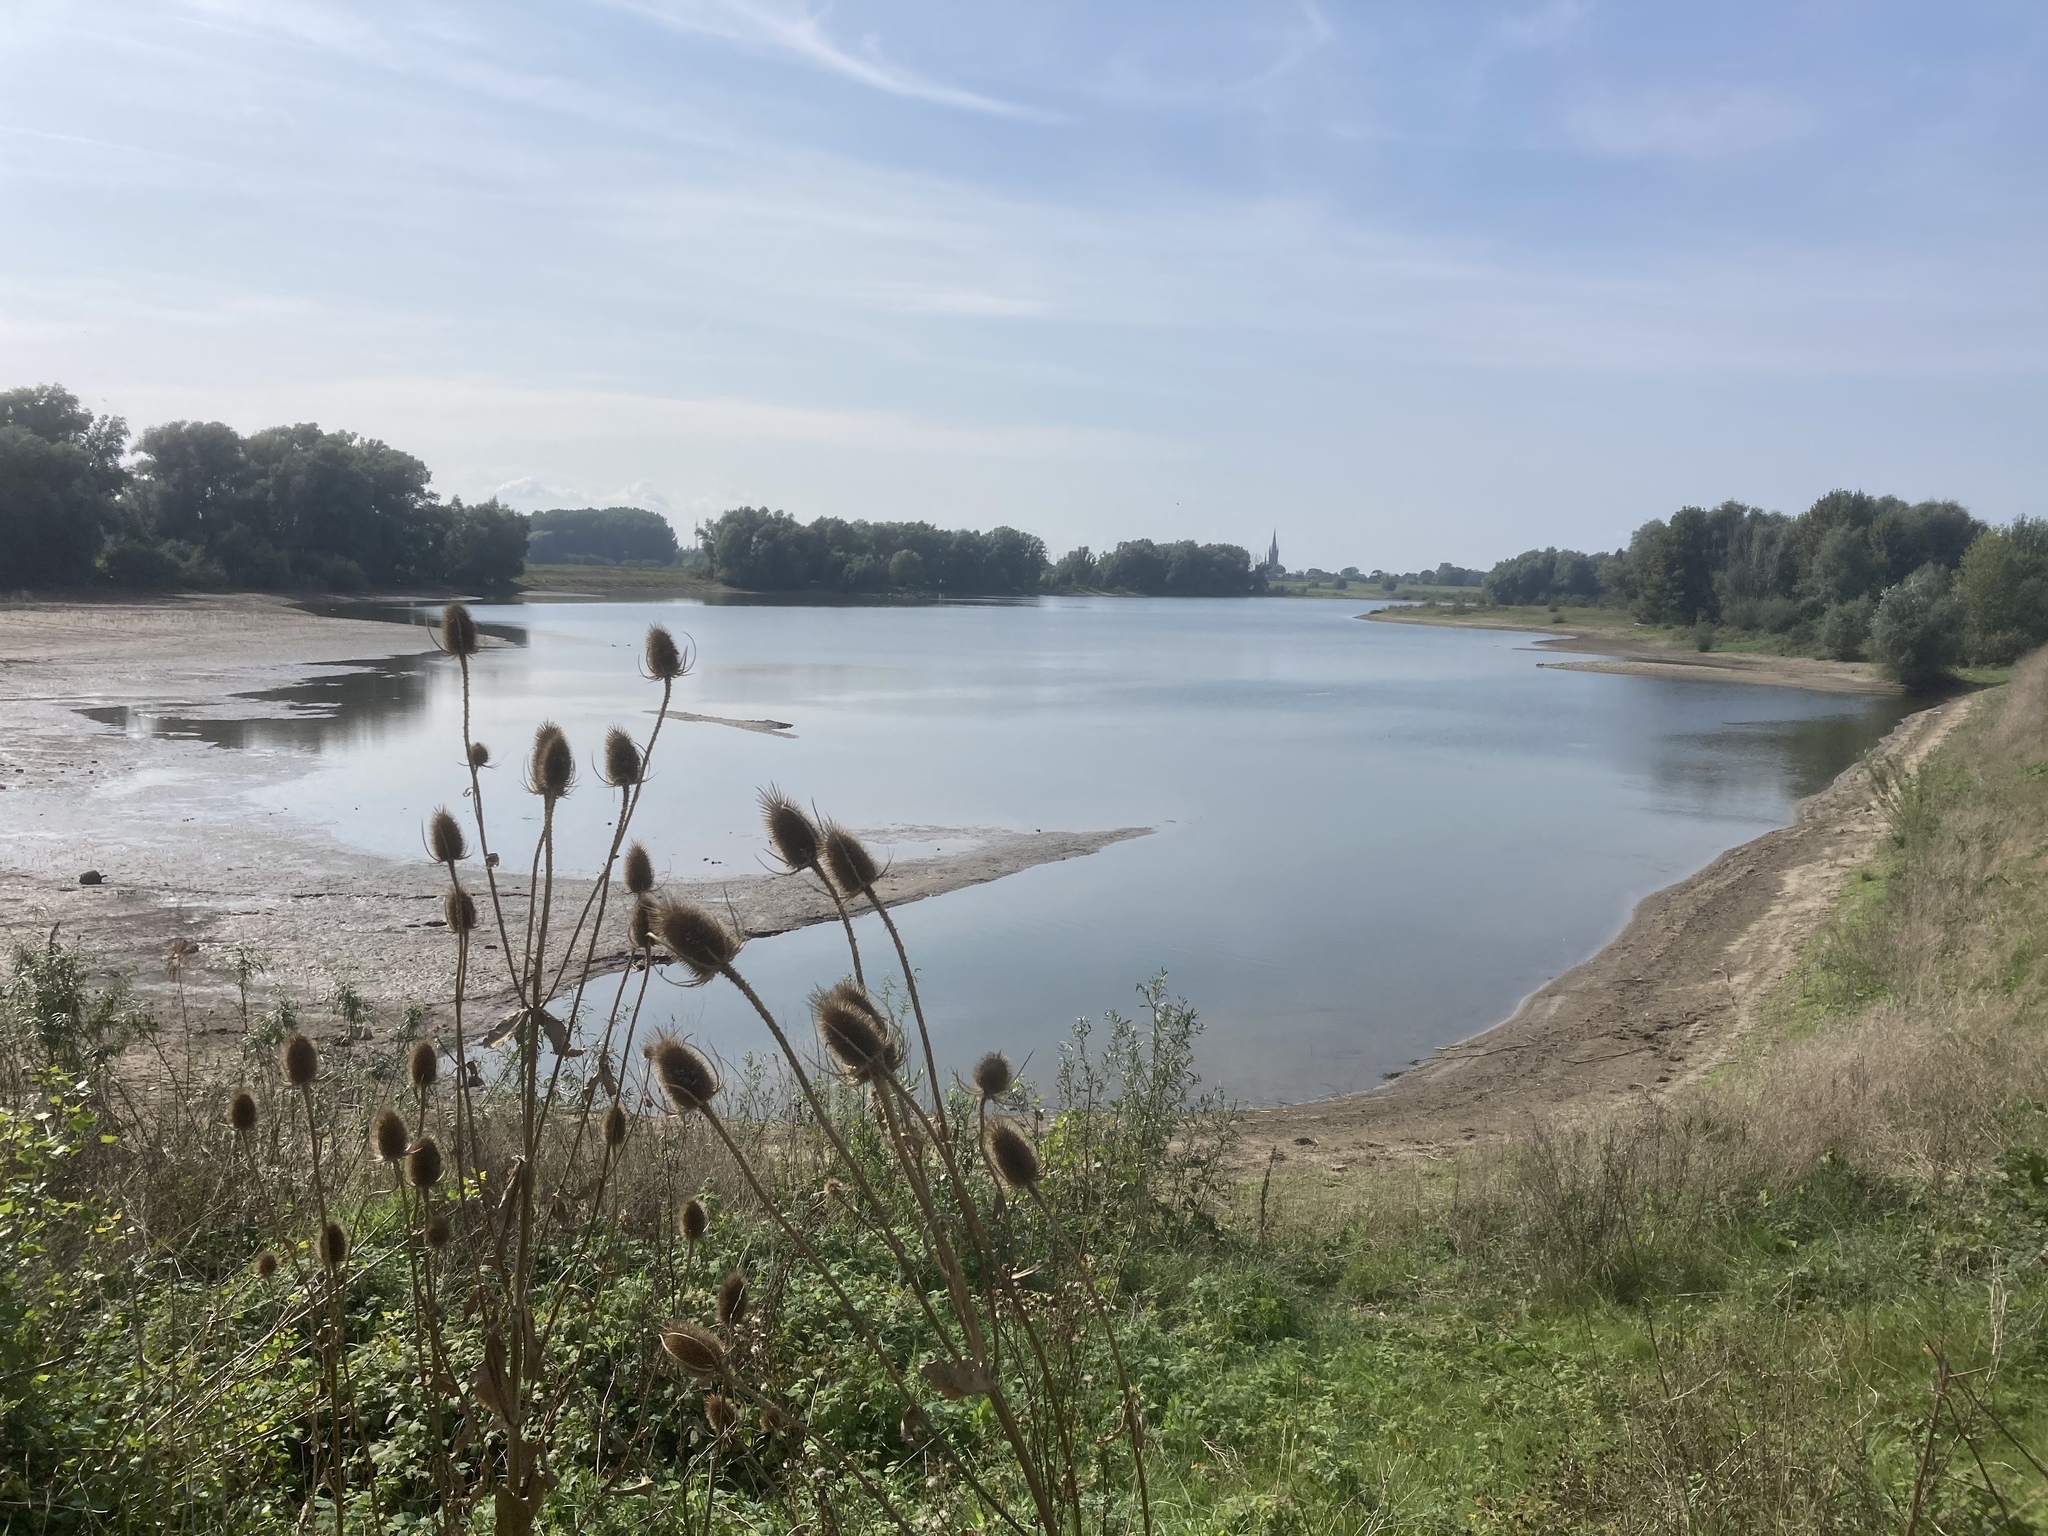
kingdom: Plantae
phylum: Tracheophyta
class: Magnoliopsida
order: Dipsacales
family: Caprifoliaceae
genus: Dipsacus
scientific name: Dipsacus fullonum
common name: Teasel
